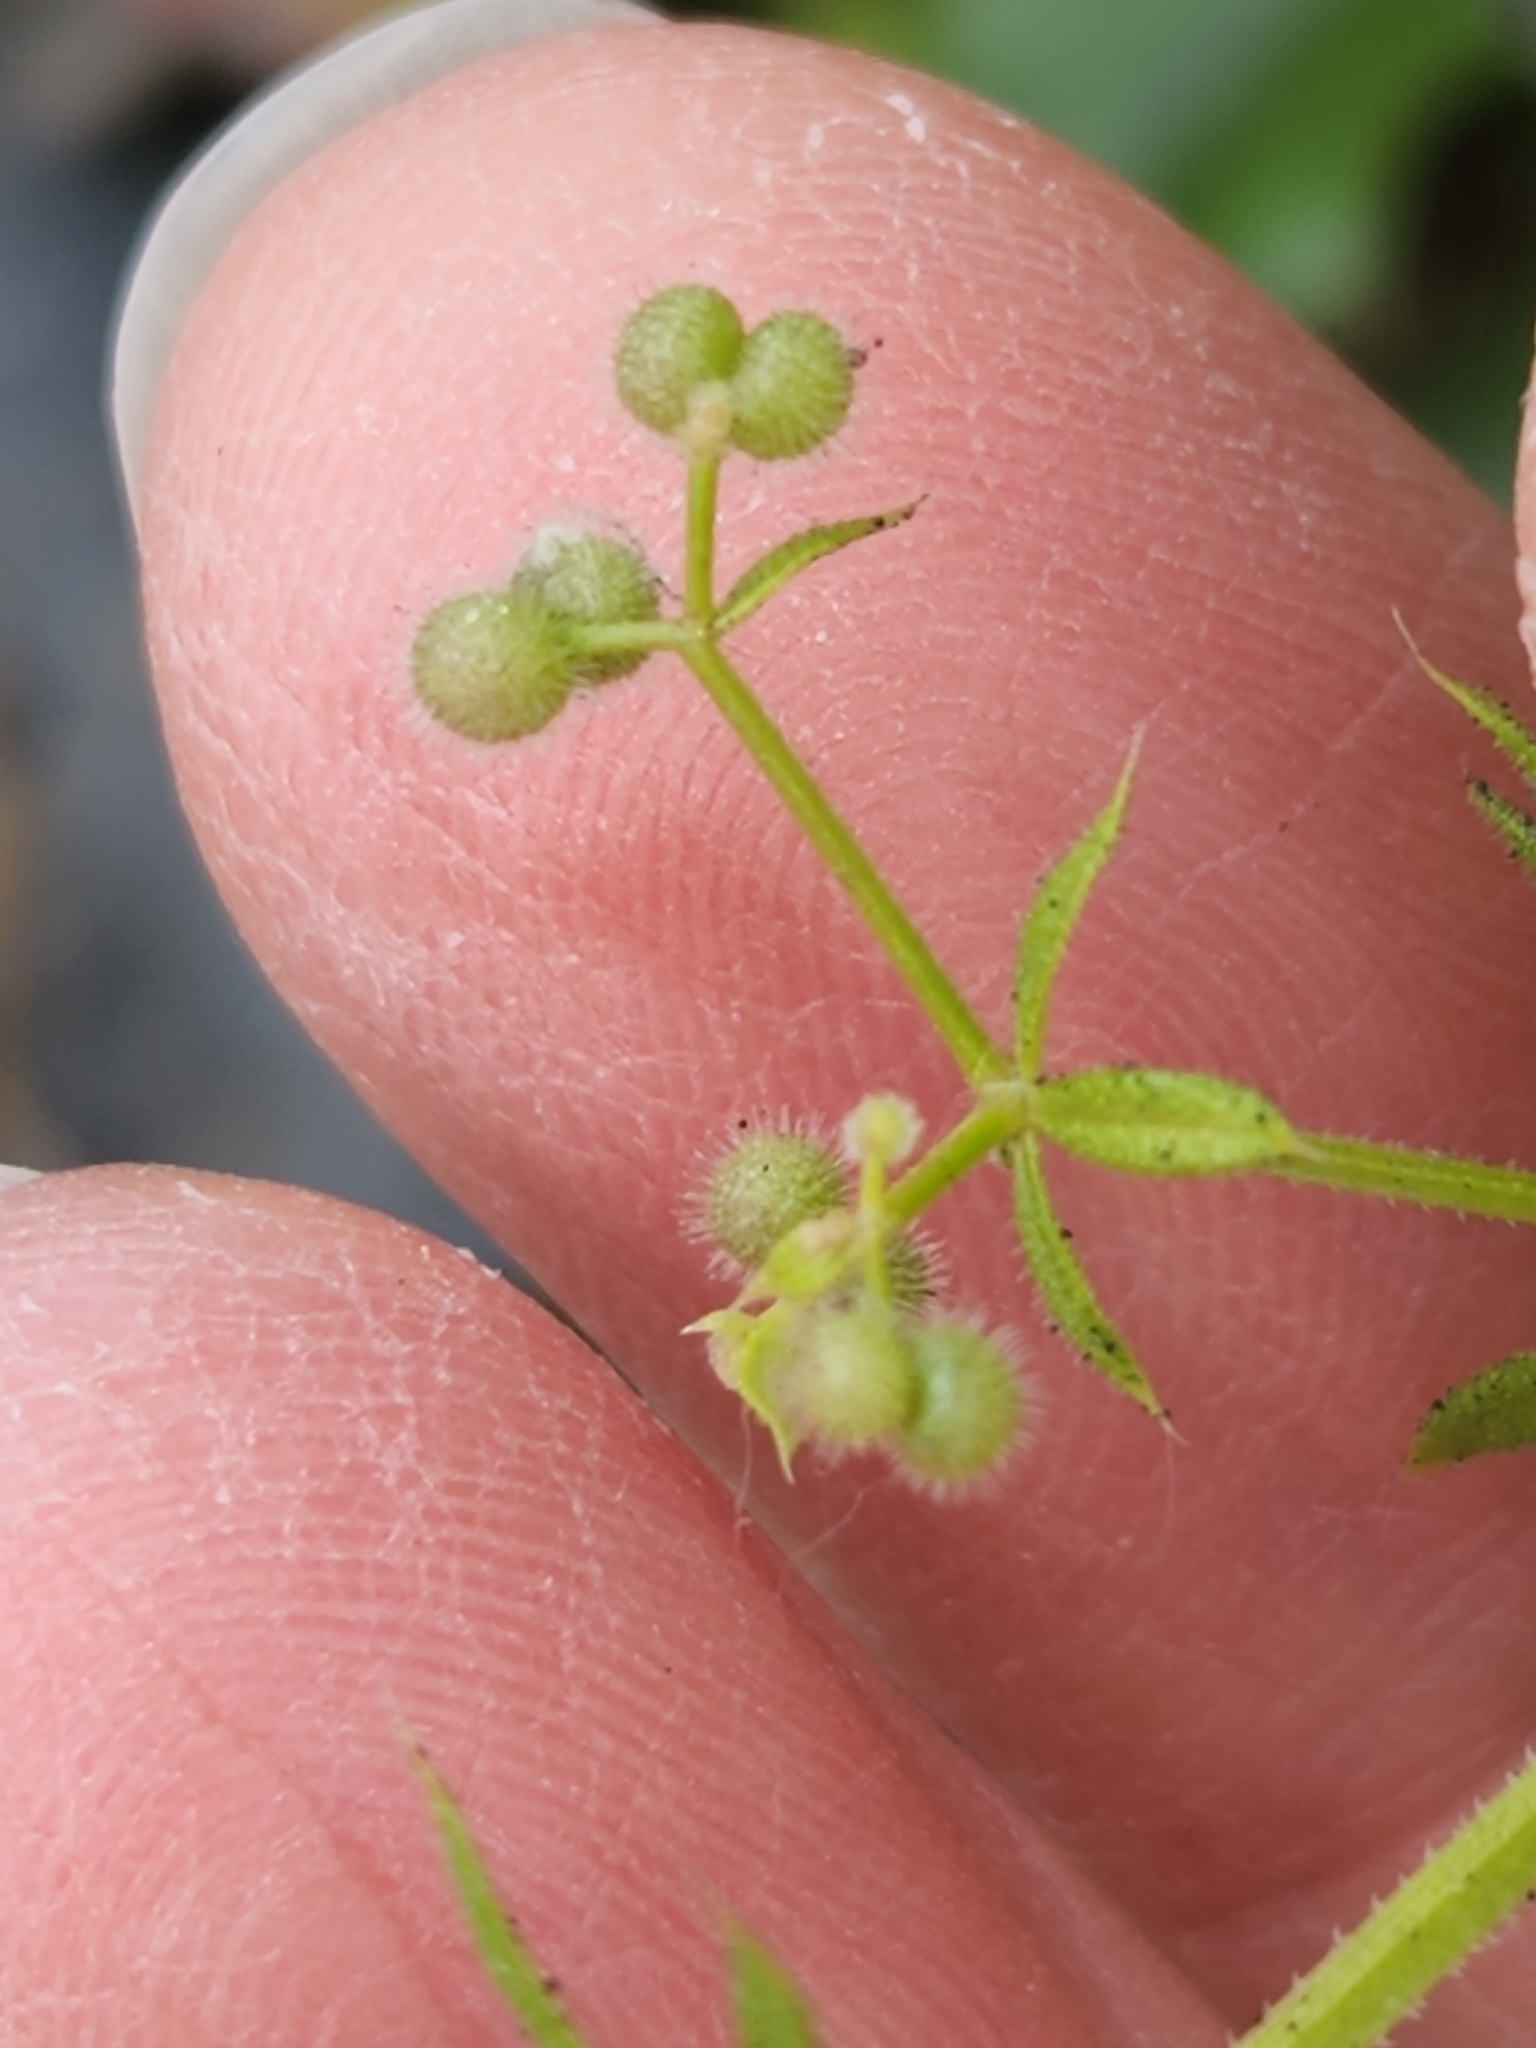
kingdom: Plantae
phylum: Tracheophyta
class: Magnoliopsida
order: Gentianales
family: Rubiaceae
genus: Galium
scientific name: Galium aparine
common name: Cleavers
